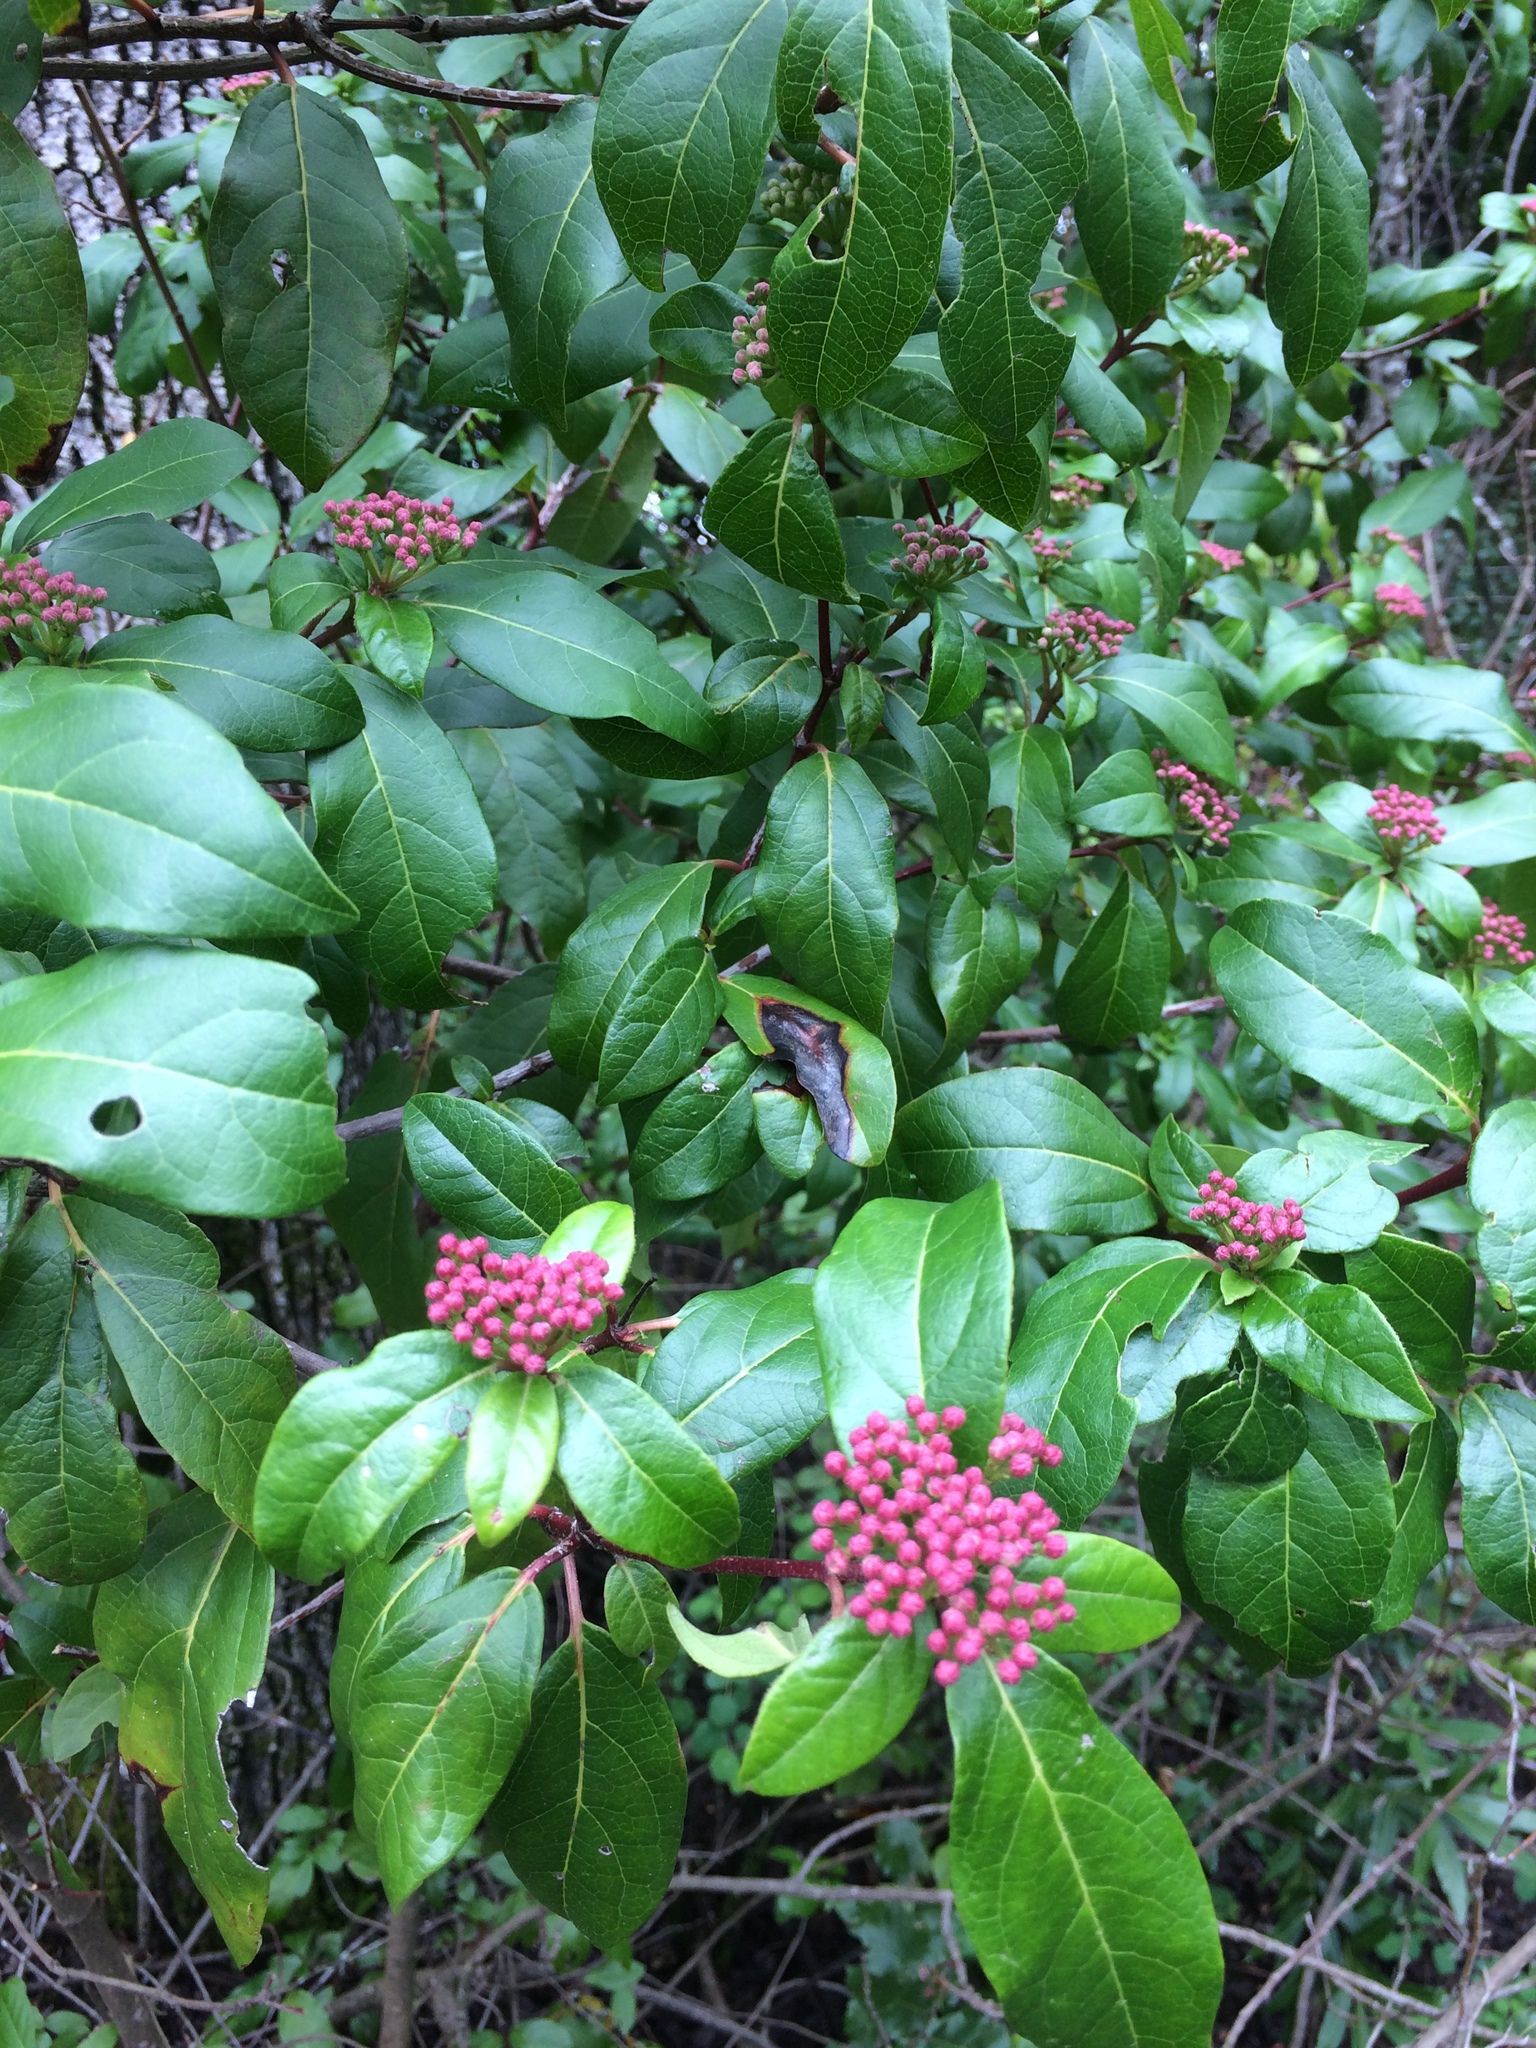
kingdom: Plantae
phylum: Tracheophyta
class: Magnoliopsida
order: Dipsacales
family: Viburnaceae
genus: Viburnum
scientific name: Viburnum tinus
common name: Laurustinus
